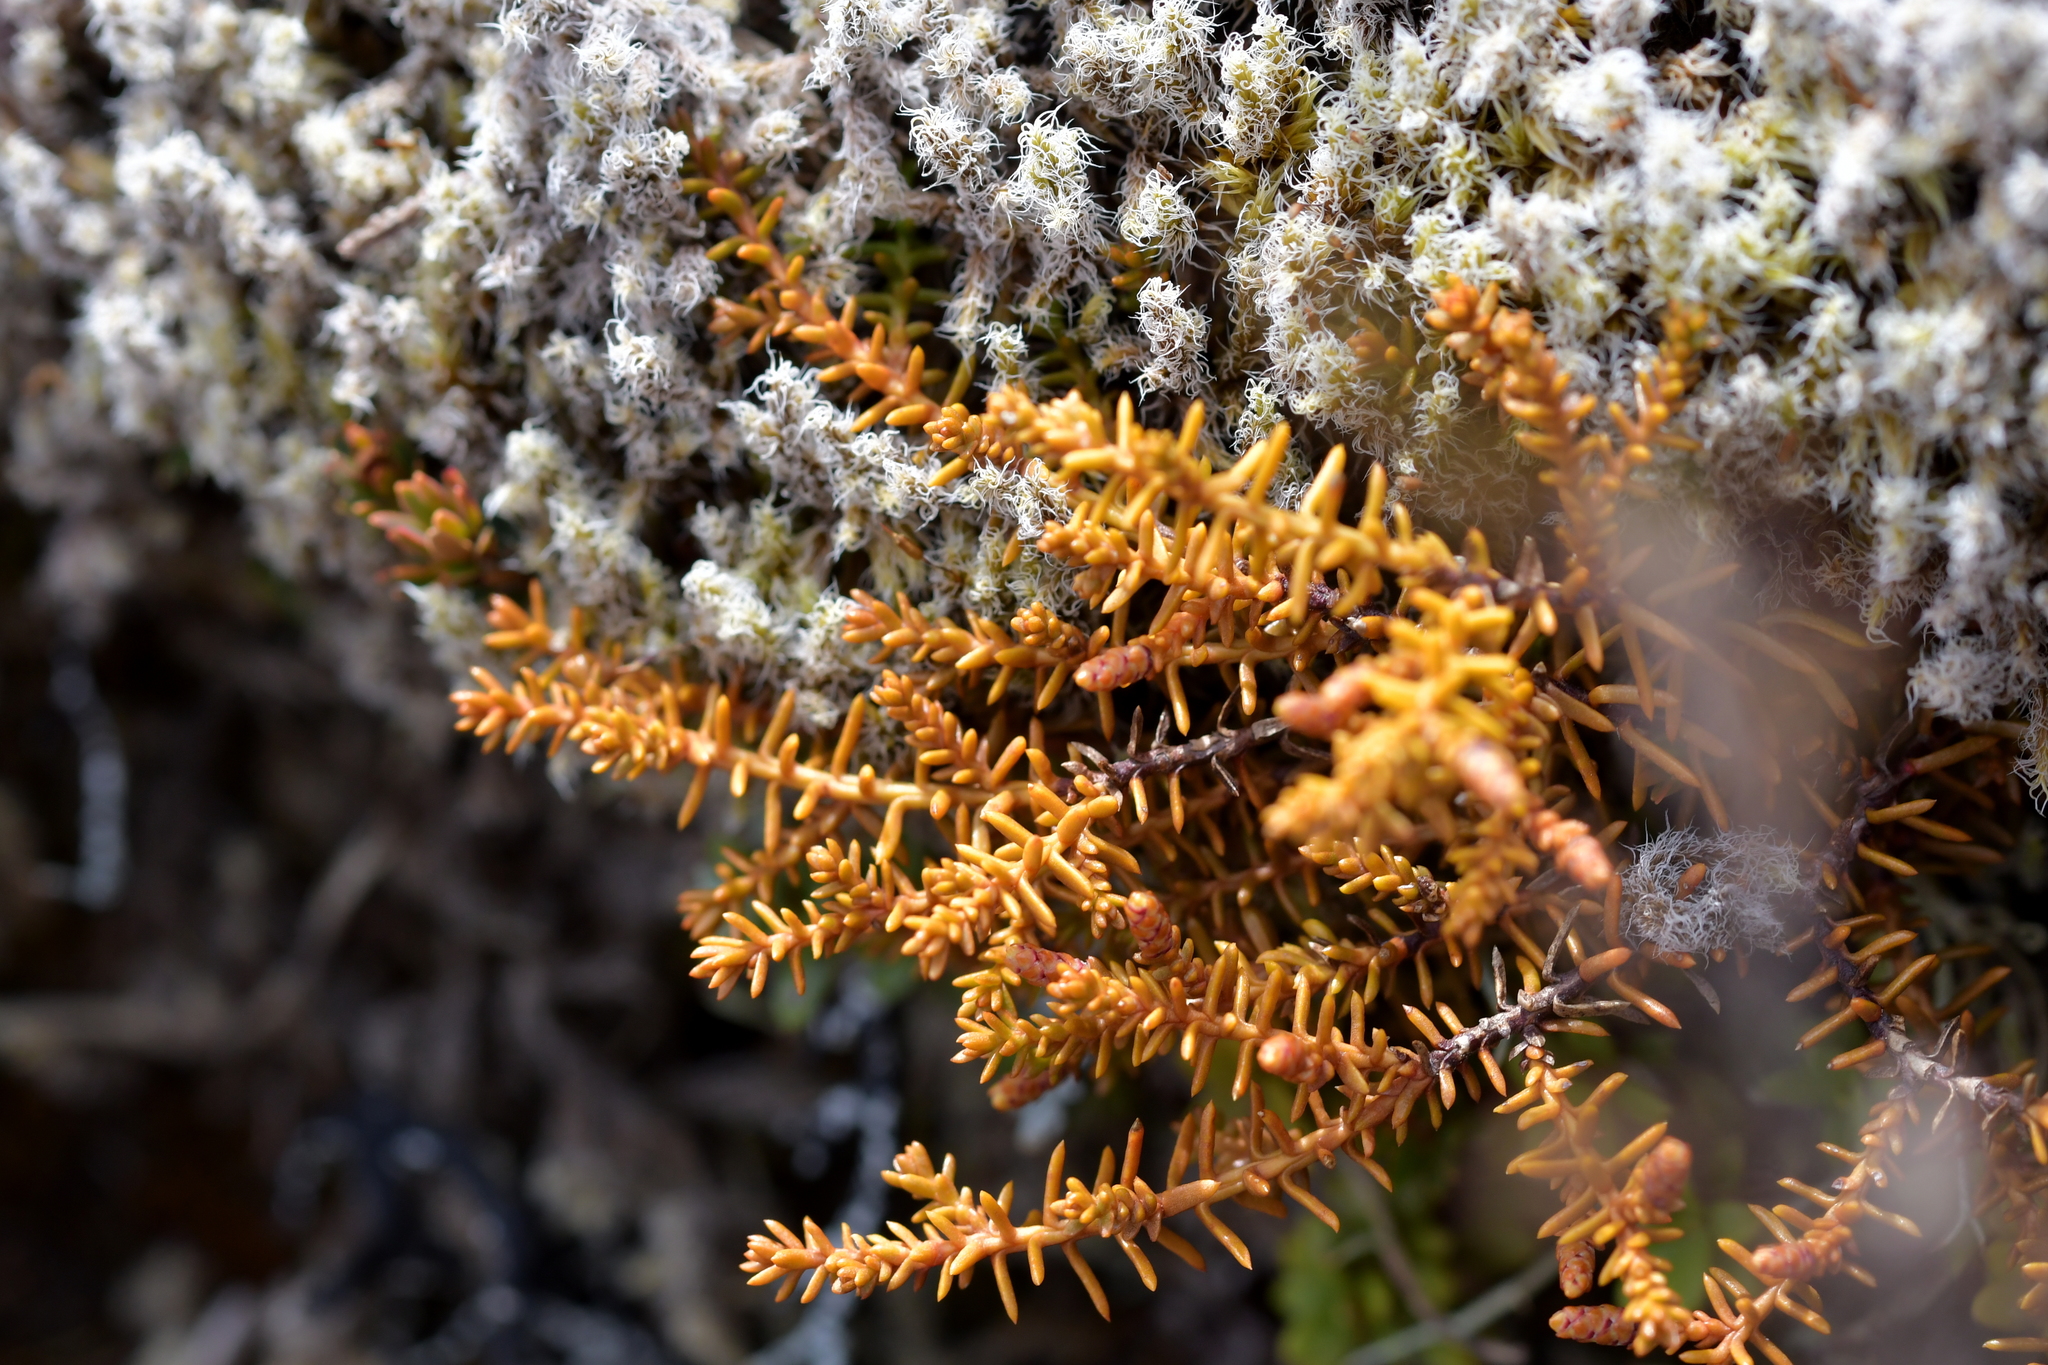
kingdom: Plantae
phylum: Tracheophyta
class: Pinopsida
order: Pinales
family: Podocarpaceae
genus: Lepidothamnus
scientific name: Lepidothamnus laxifolius
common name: Pygmy pine
